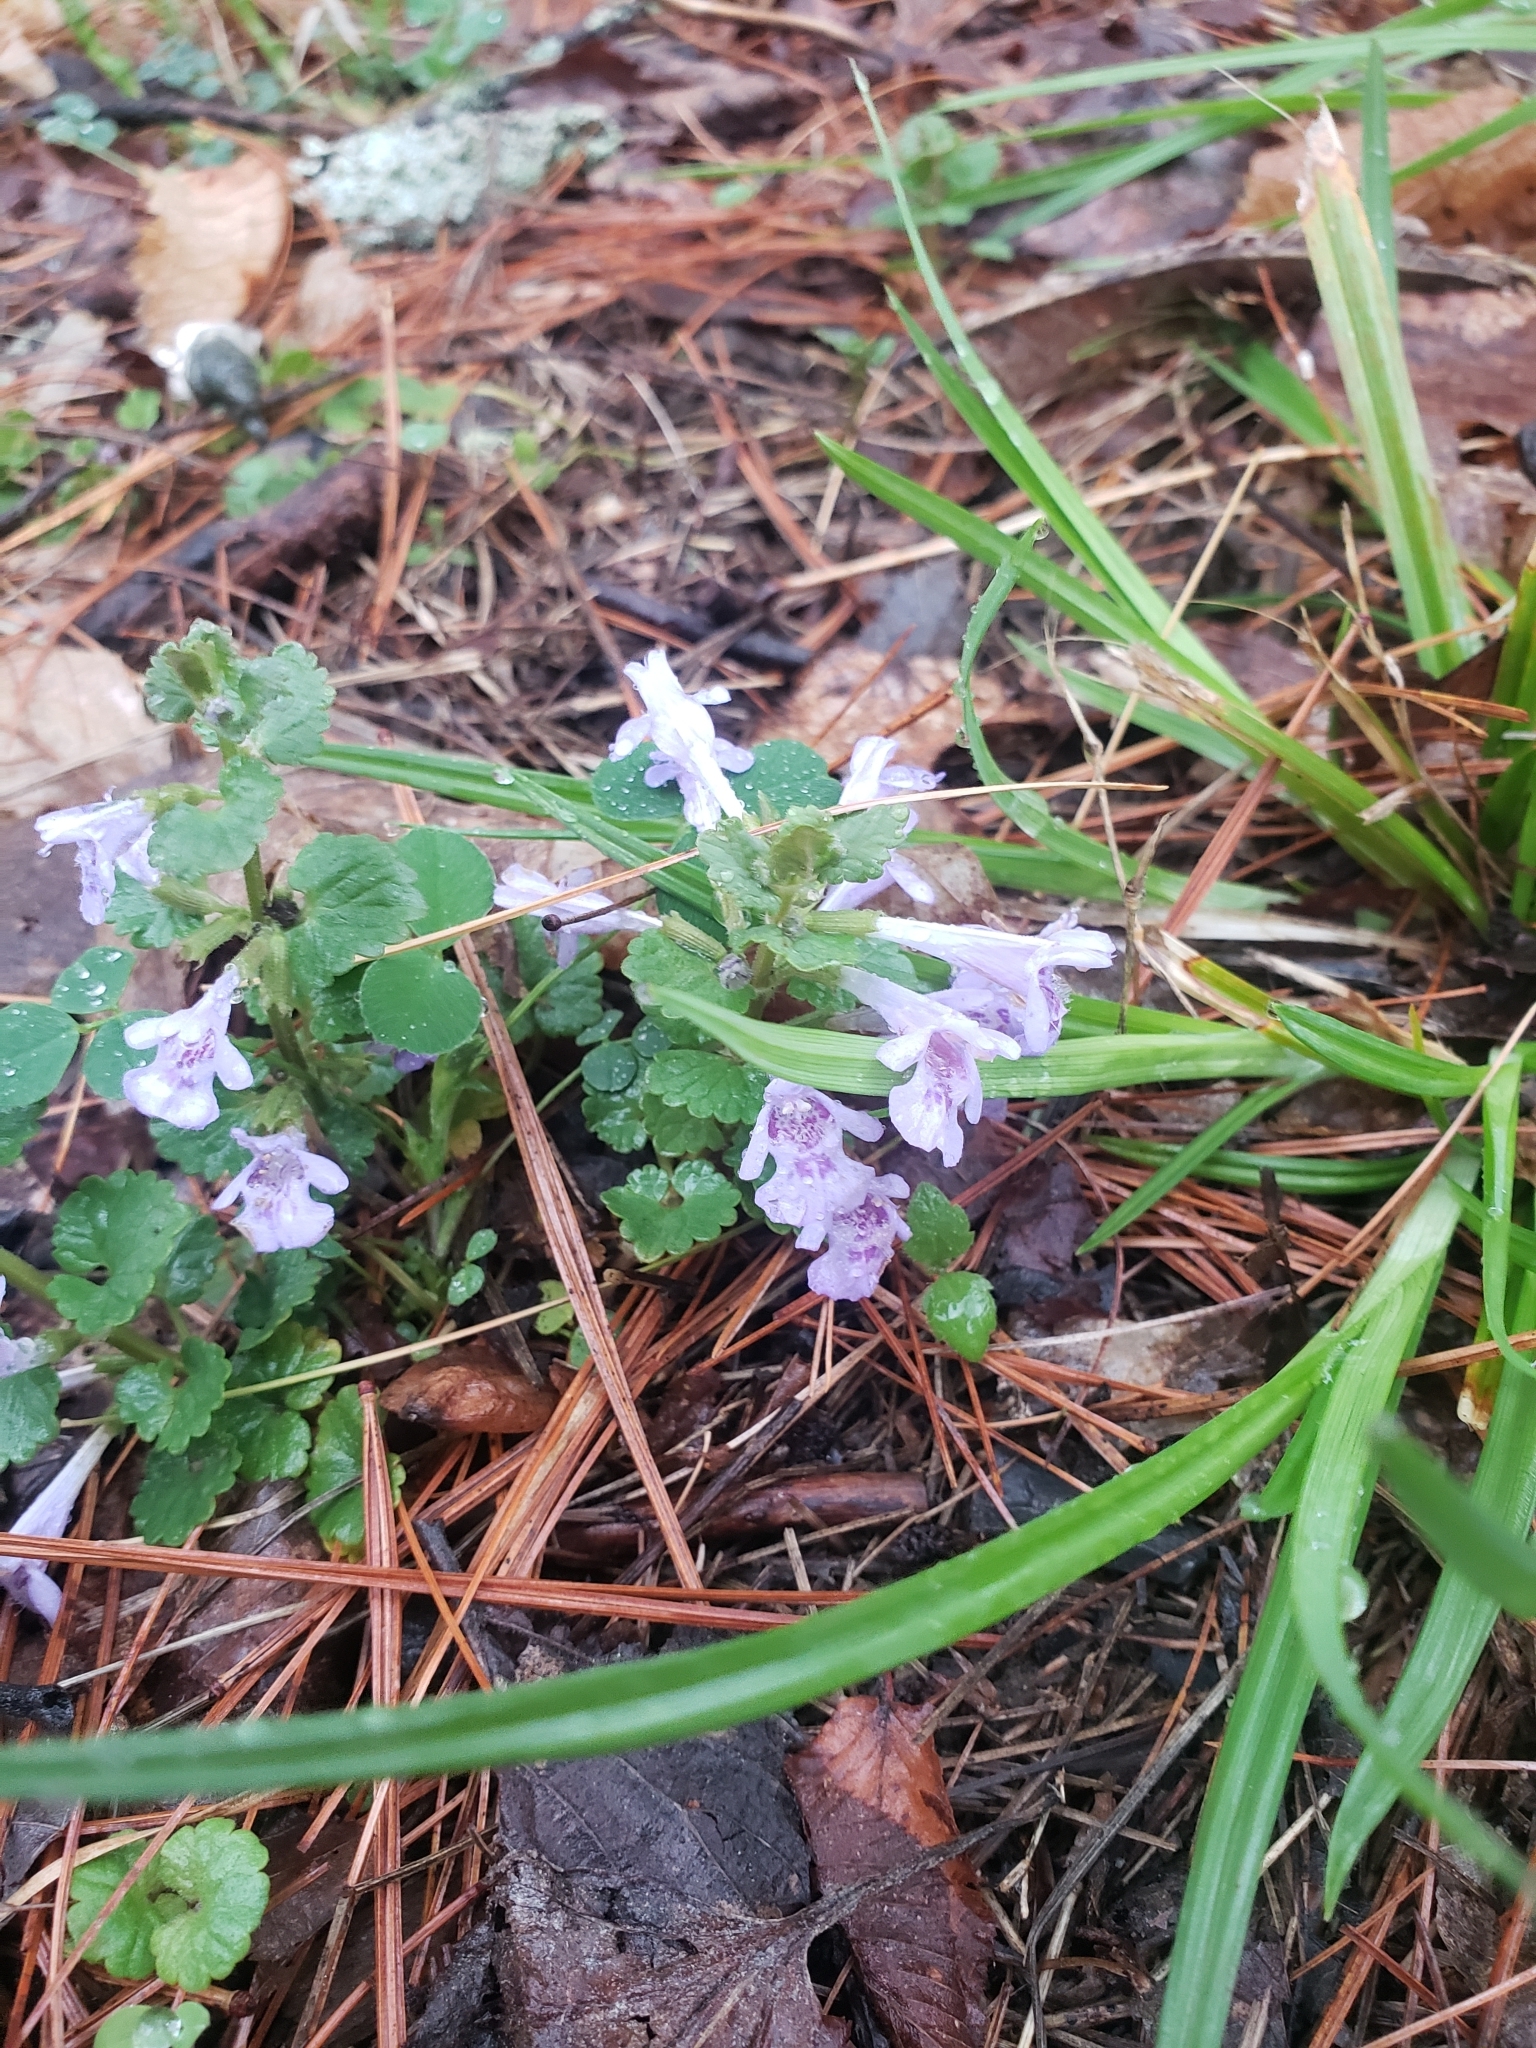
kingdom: Plantae
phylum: Tracheophyta
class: Magnoliopsida
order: Lamiales
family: Lamiaceae
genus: Glechoma
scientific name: Glechoma hederacea
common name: Ground ivy
